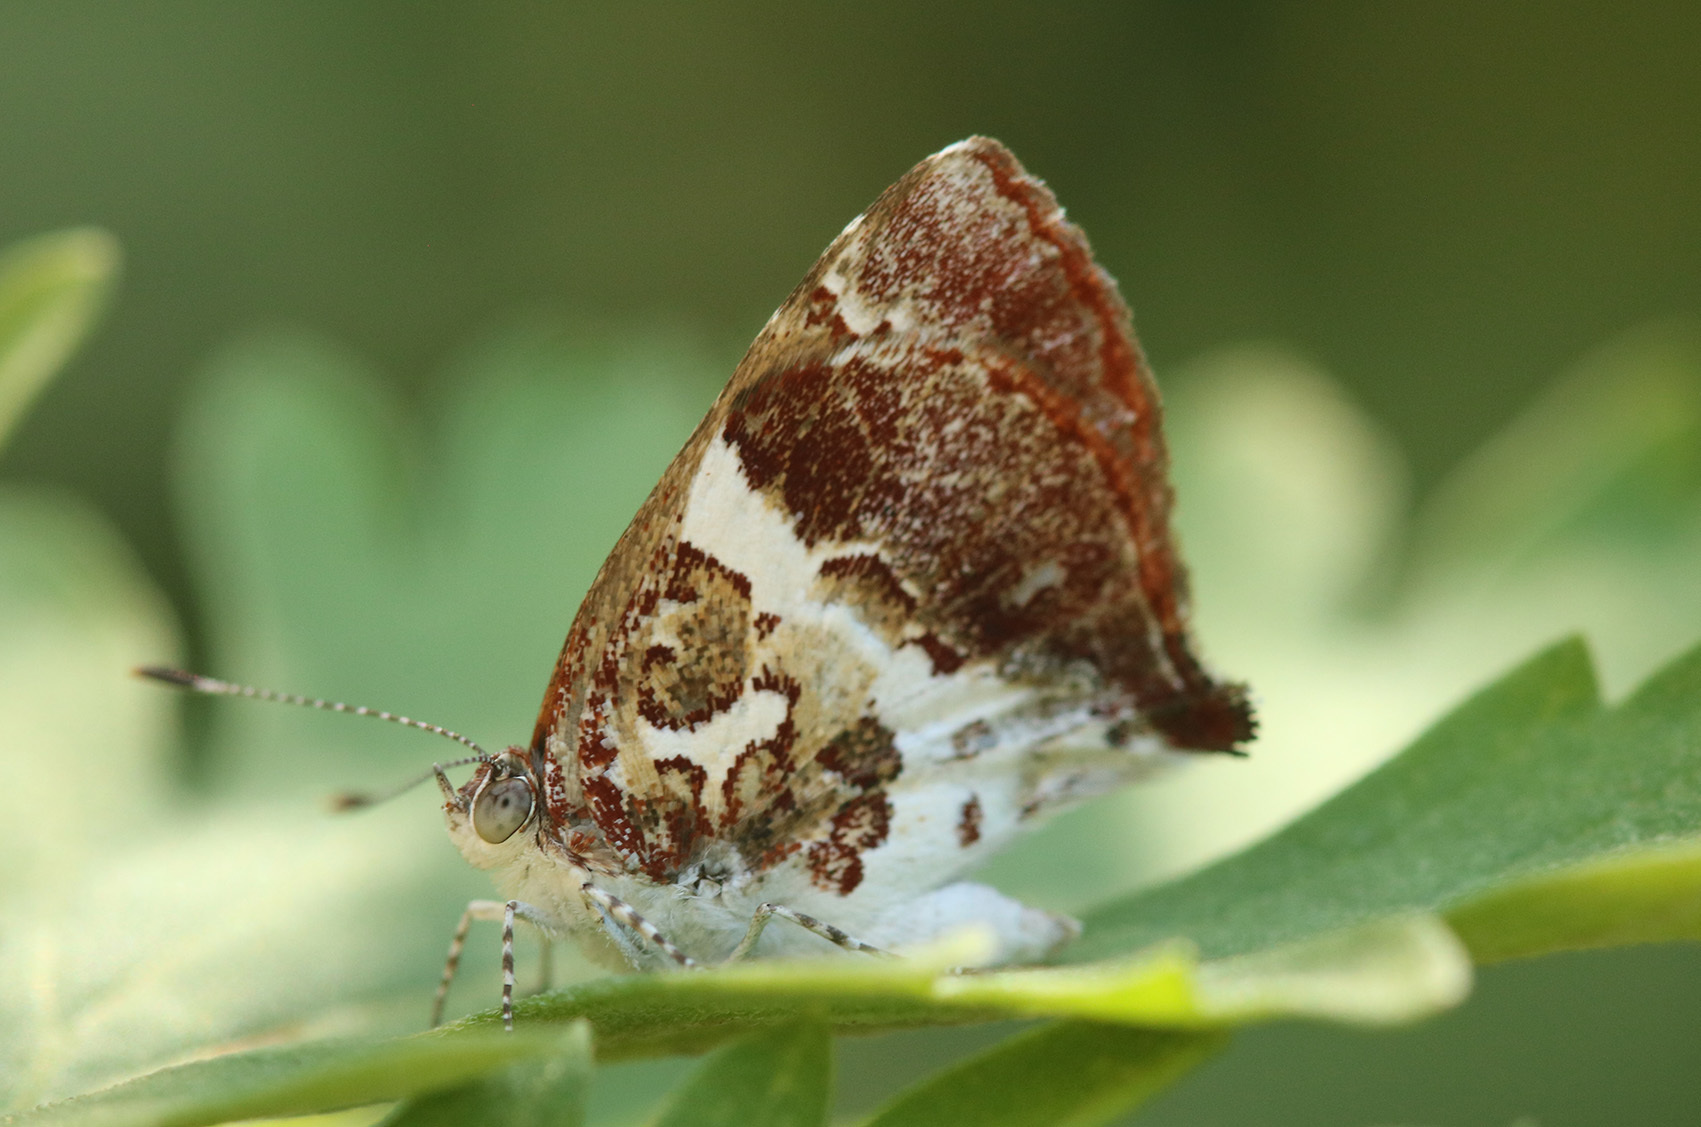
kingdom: Animalia
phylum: Arthropoda
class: Insecta
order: Lepidoptera
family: Lycaenidae
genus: Ministrymon
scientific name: Ministrymon gamma
